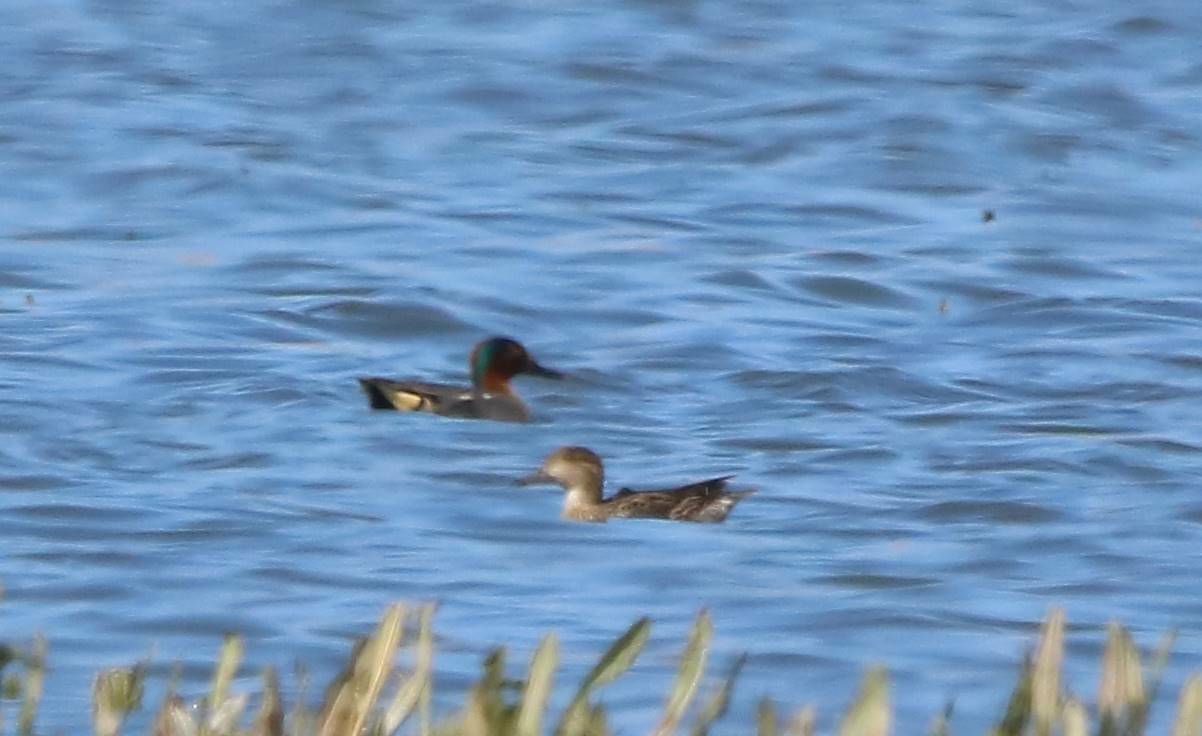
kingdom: Animalia
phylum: Chordata
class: Aves
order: Anseriformes
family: Anatidae
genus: Anas
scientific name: Anas crecca
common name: Eurasian teal
